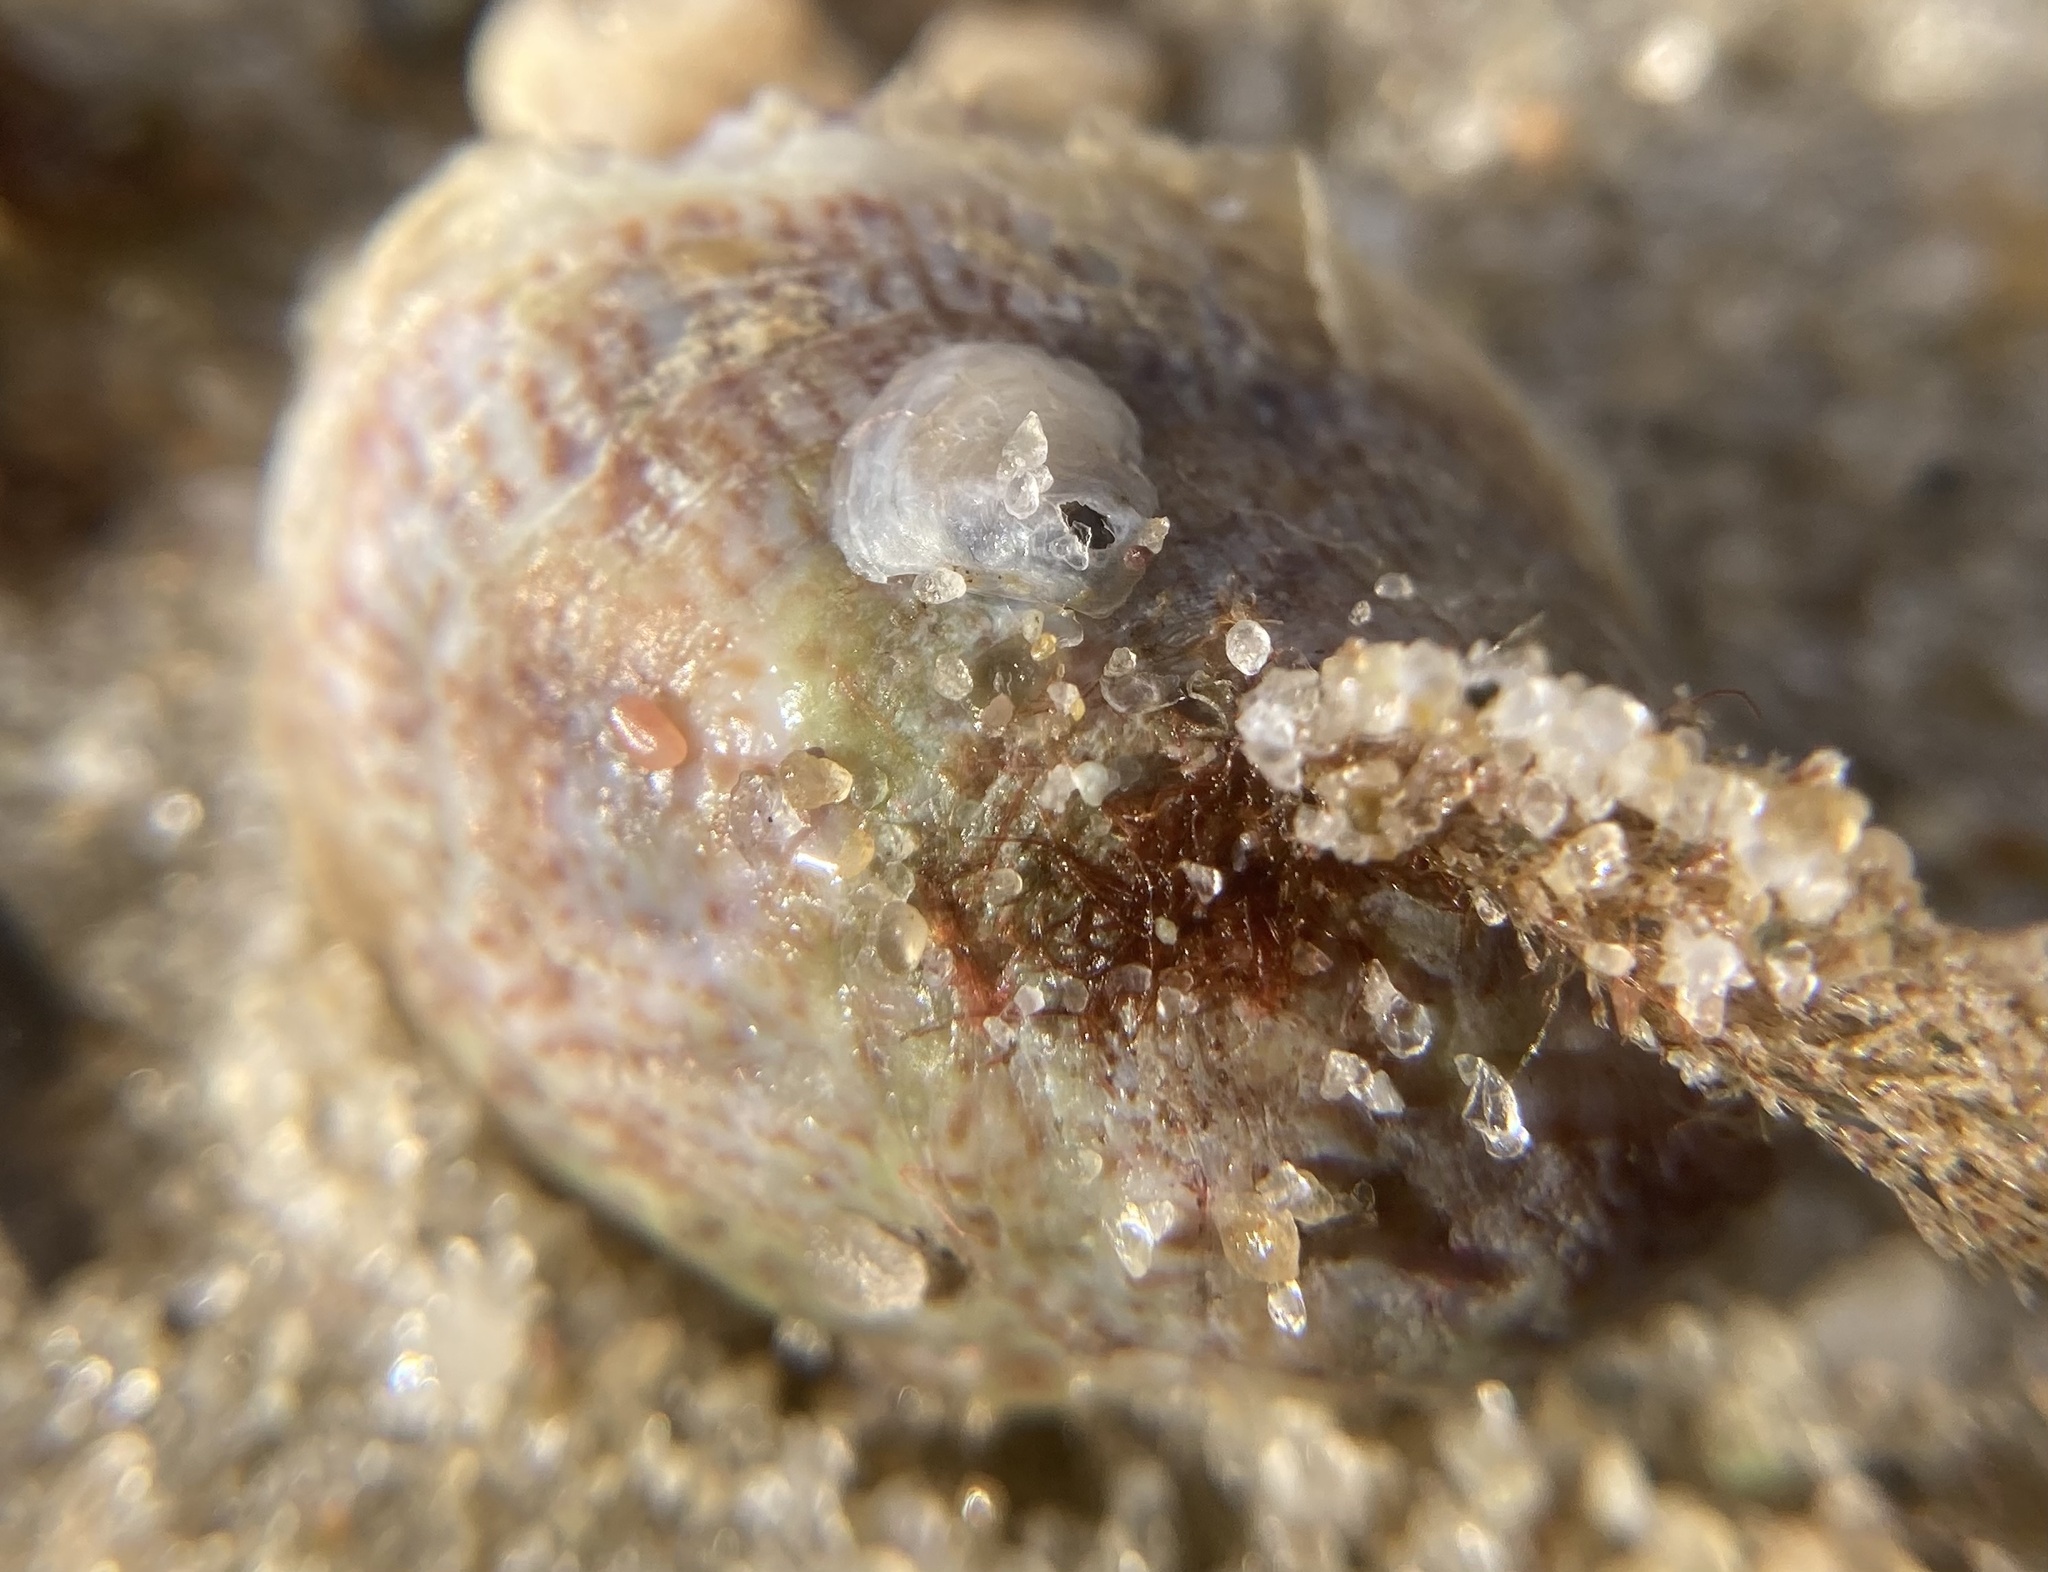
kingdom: Animalia
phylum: Mollusca
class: Gastropoda
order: Littorinimorpha
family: Calyptraeidae
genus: Crepidula
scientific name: Crepidula fornicata
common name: Slipper limpet
